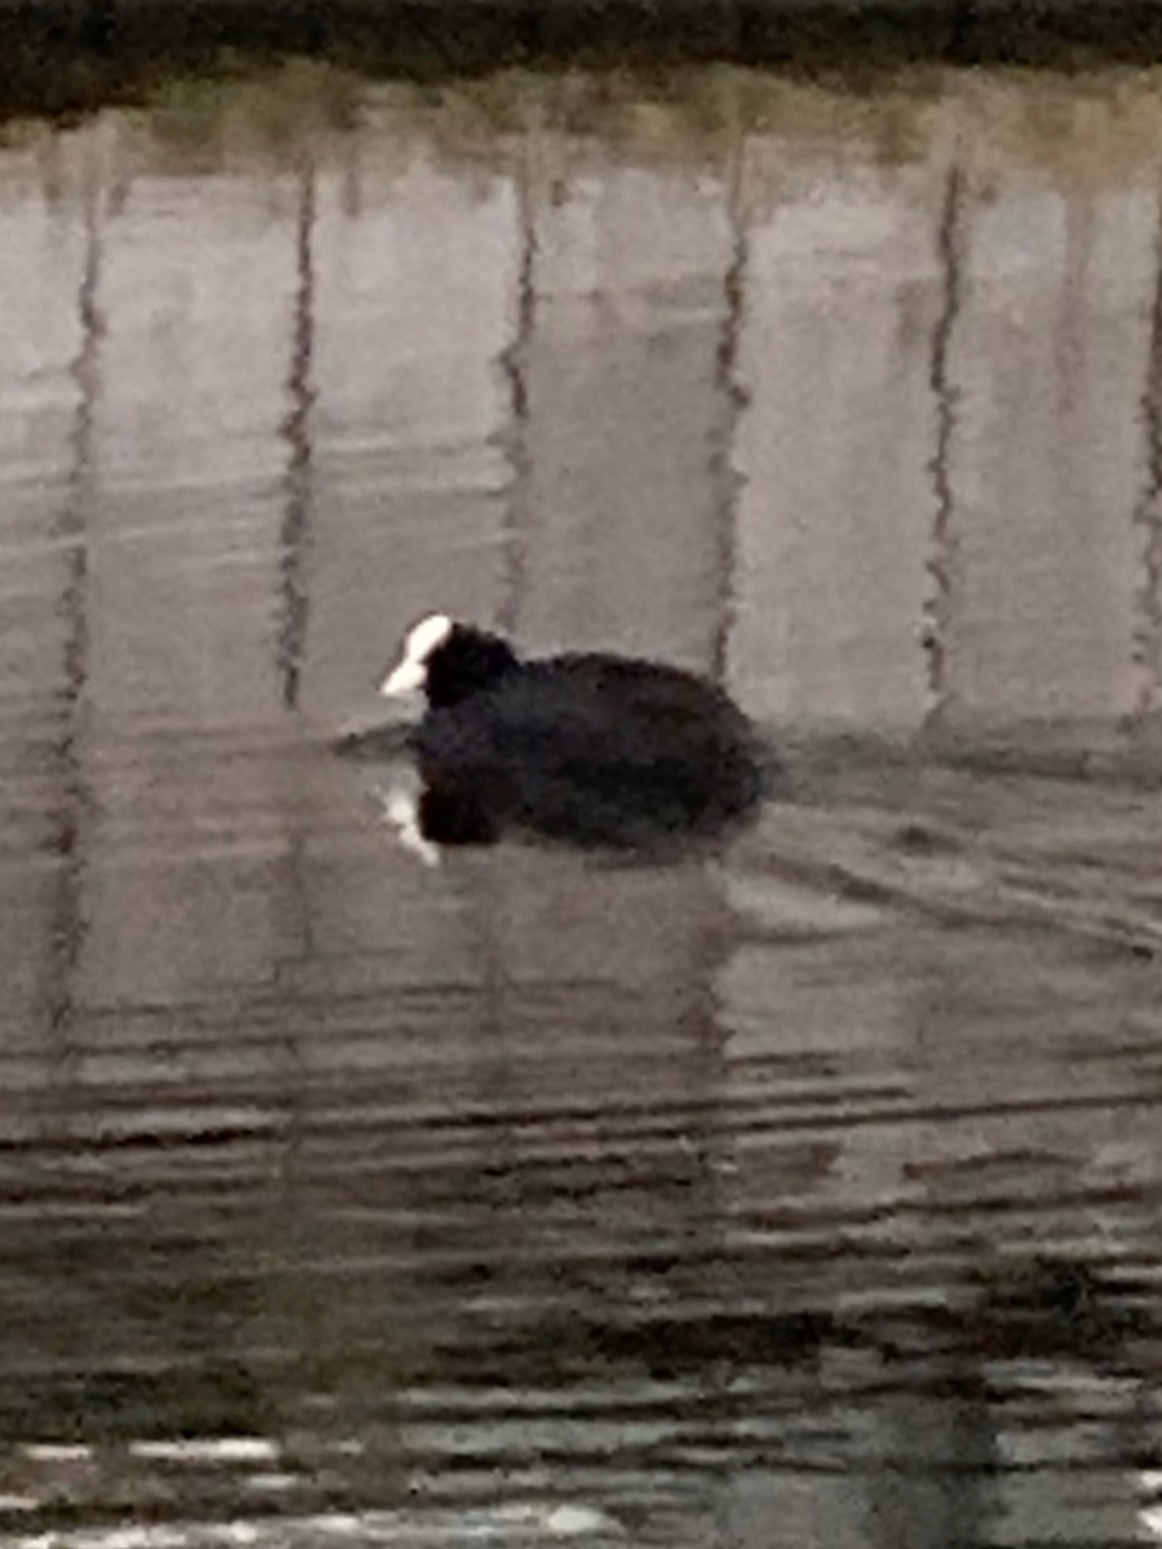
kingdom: Animalia
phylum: Chordata
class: Aves
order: Gruiformes
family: Rallidae
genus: Fulica
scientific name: Fulica atra
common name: Eurasian coot
